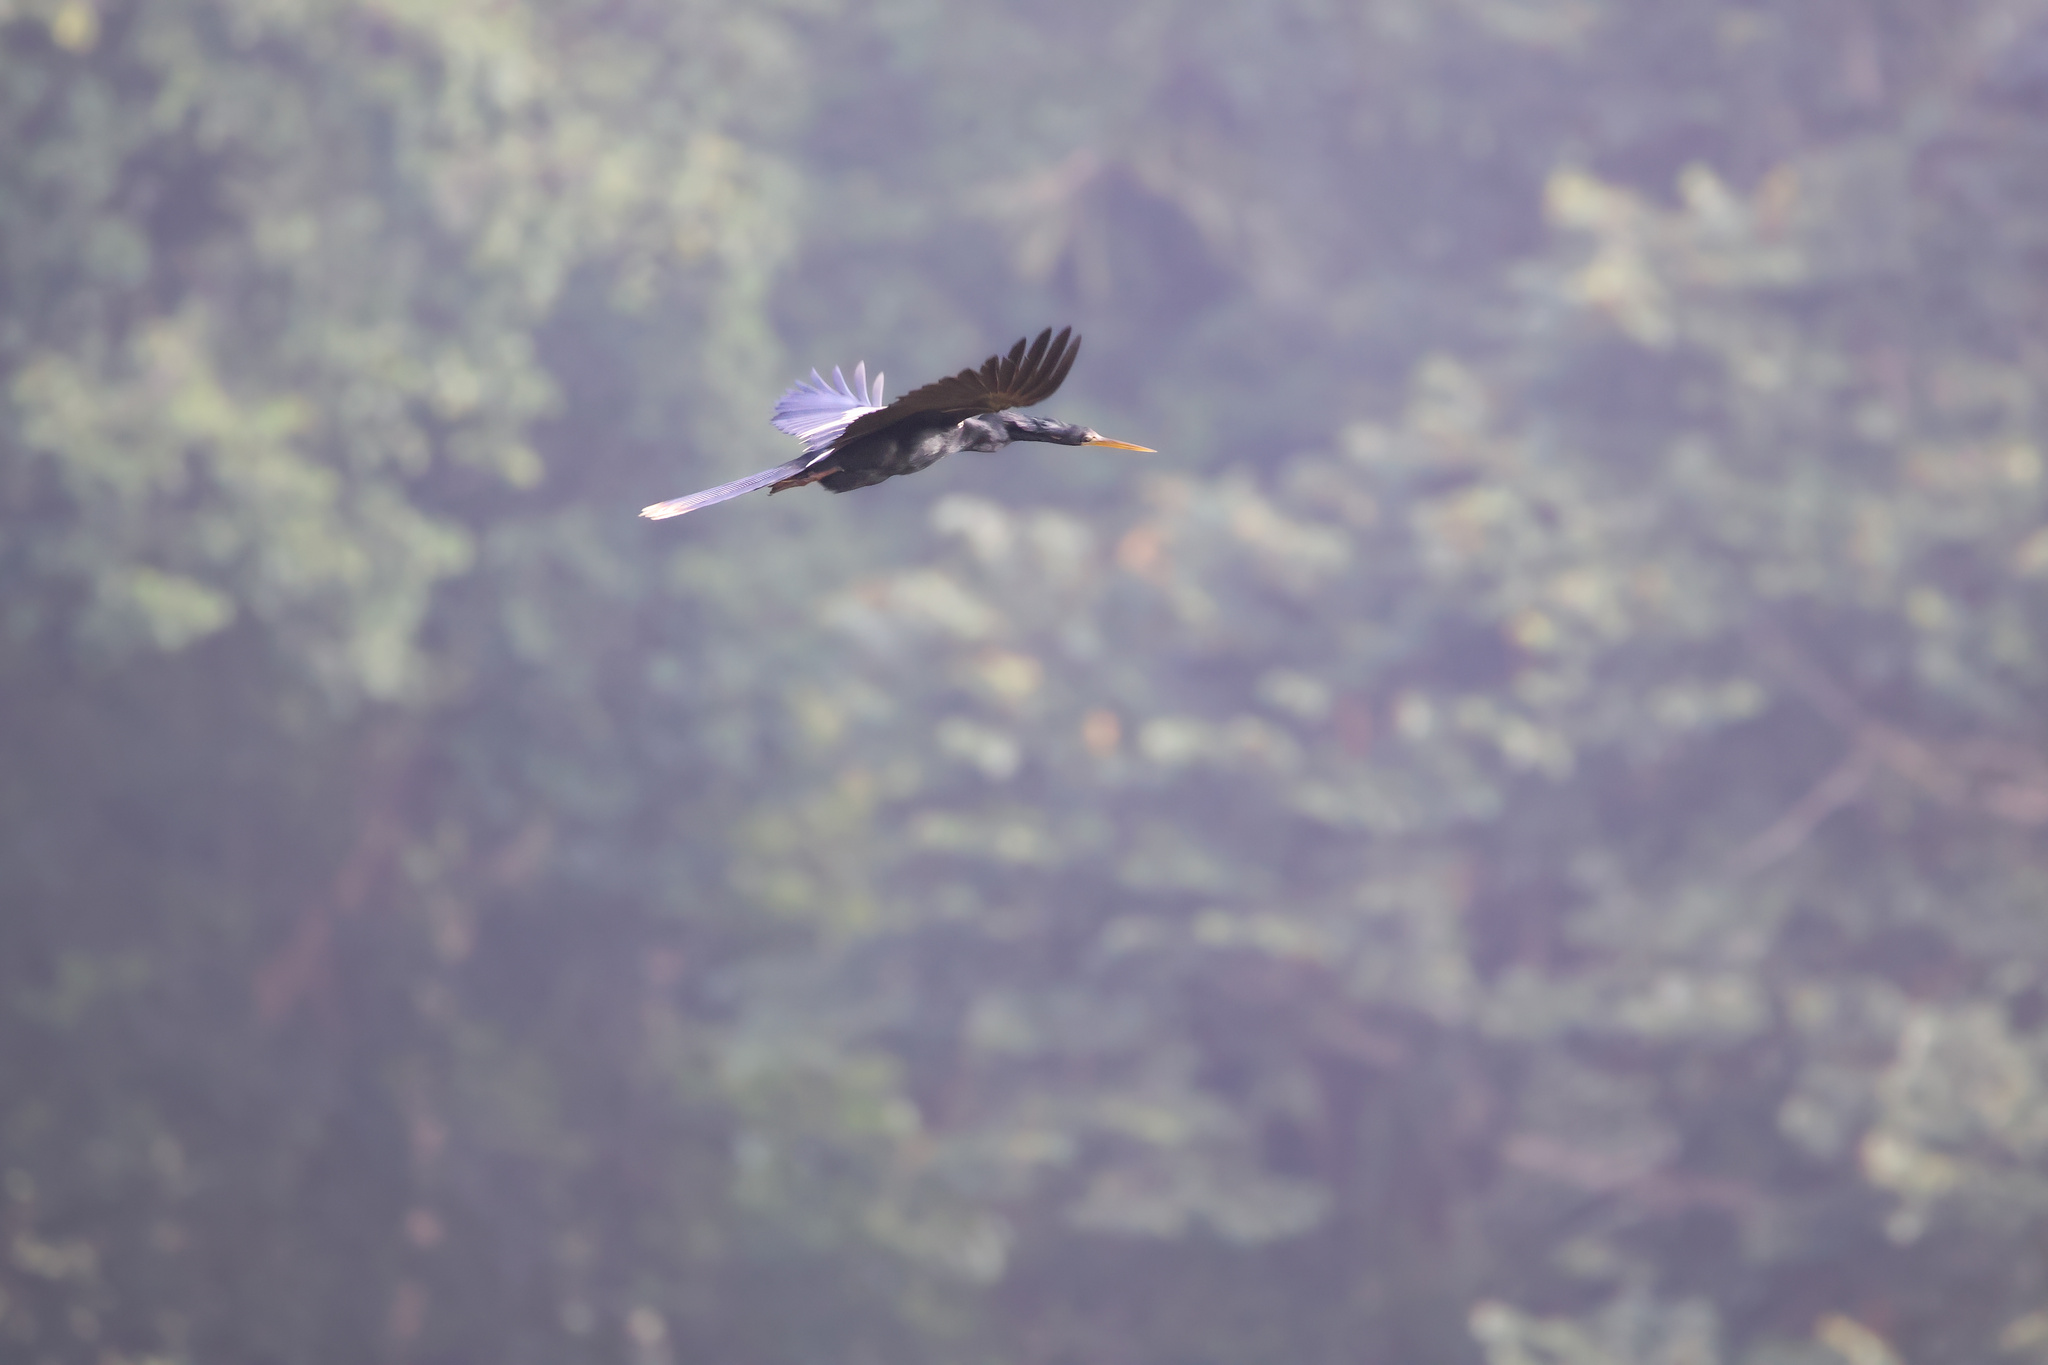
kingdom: Animalia
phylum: Chordata
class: Aves
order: Suliformes
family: Anhingidae
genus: Anhinga
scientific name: Anhinga anhinga
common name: Anhinga
